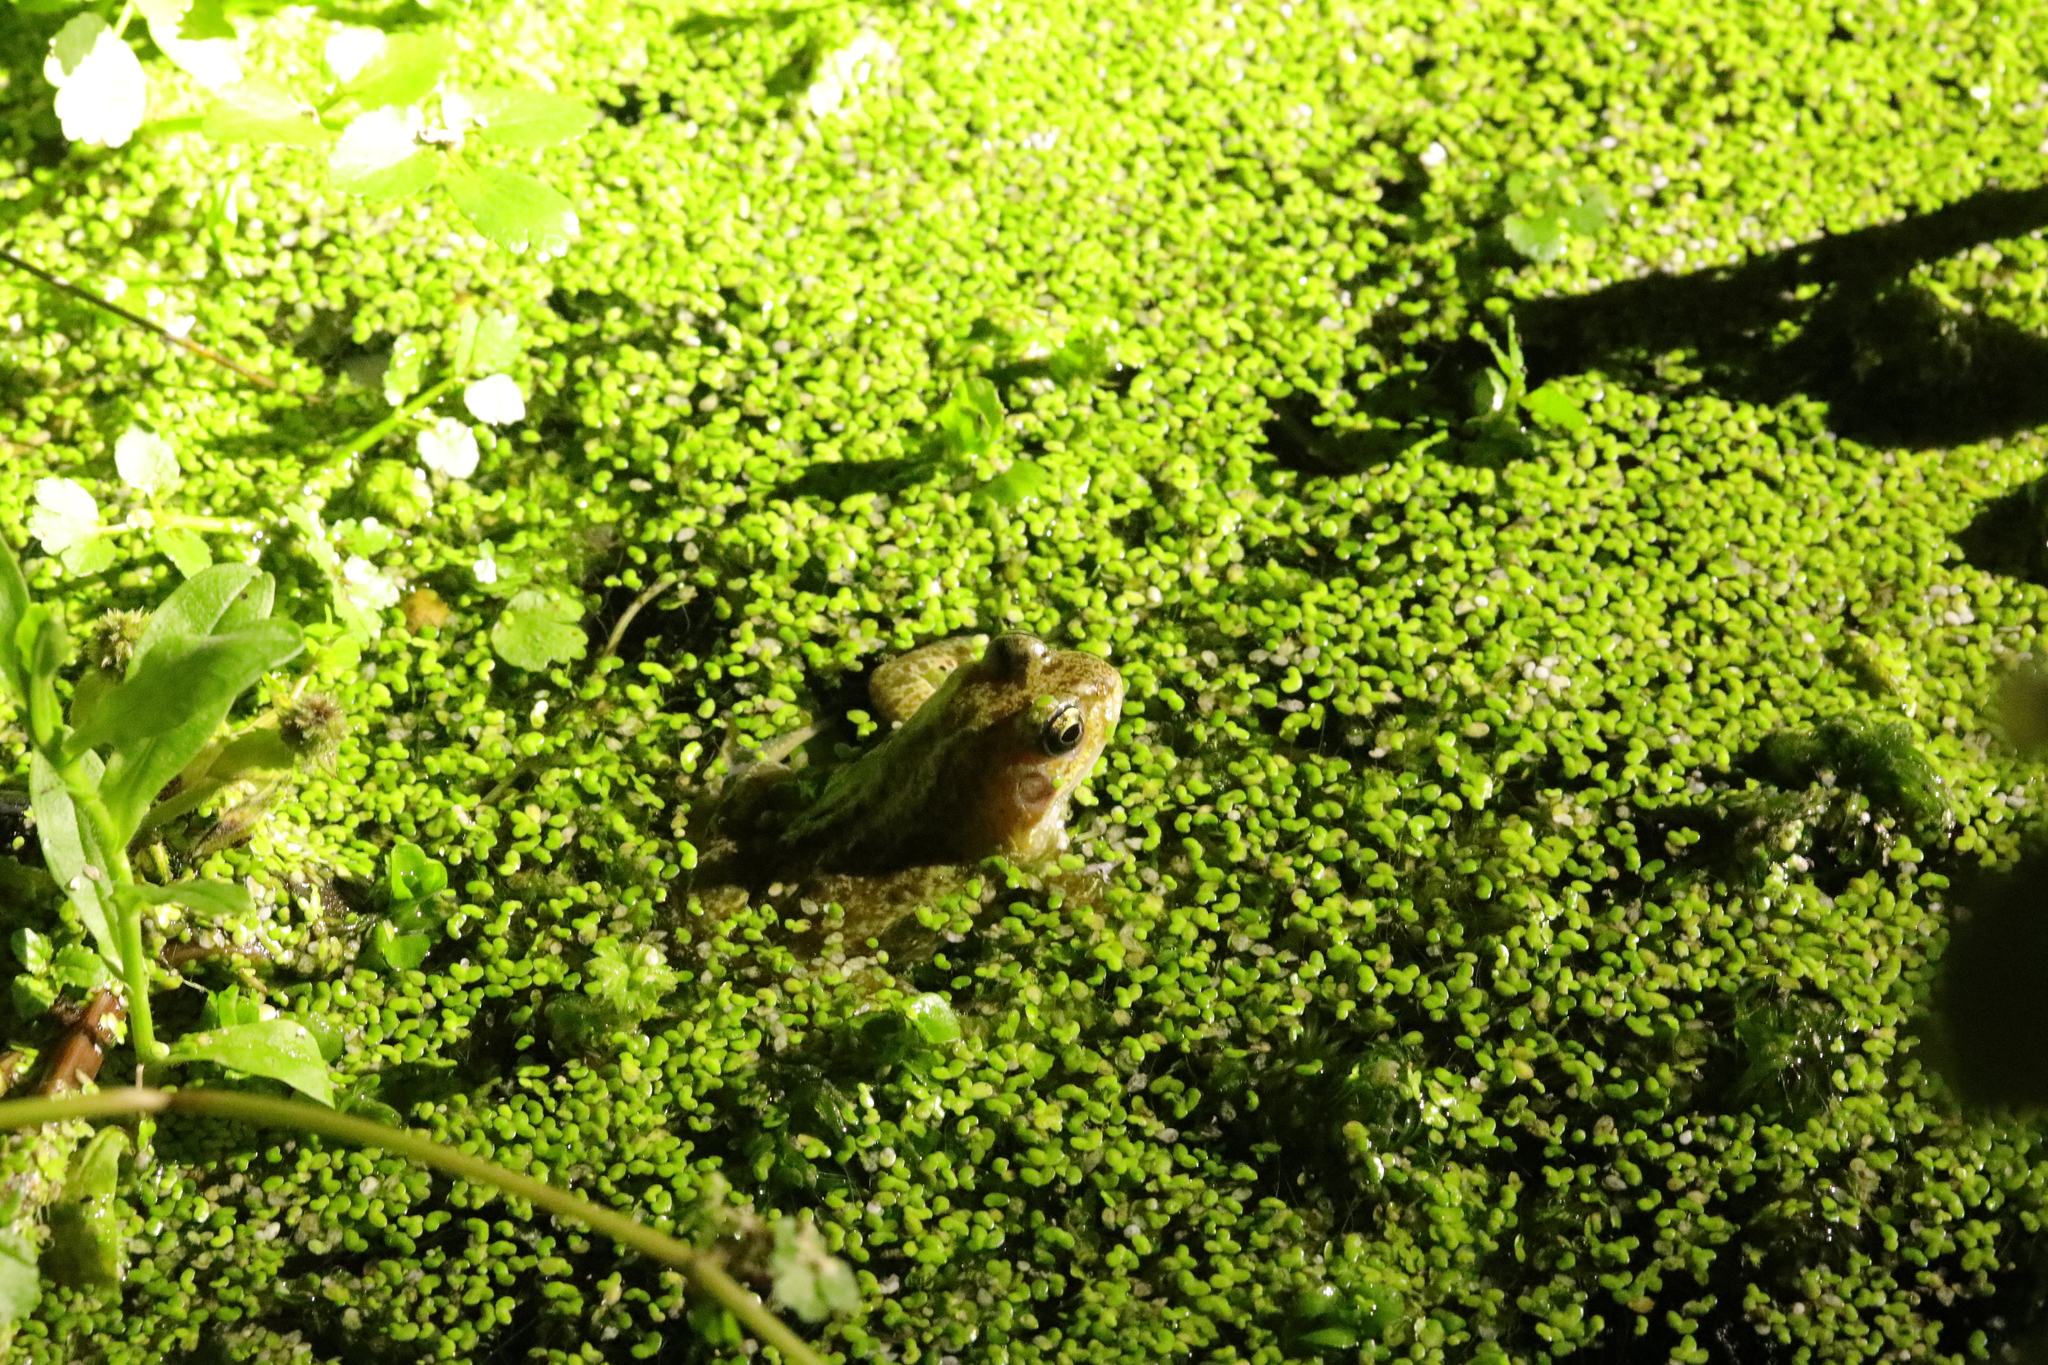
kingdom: Animalia
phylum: Chordata
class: Amphibia
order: Anura
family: Ranidae
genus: Rana
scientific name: Rana temporaria
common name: Common frog
